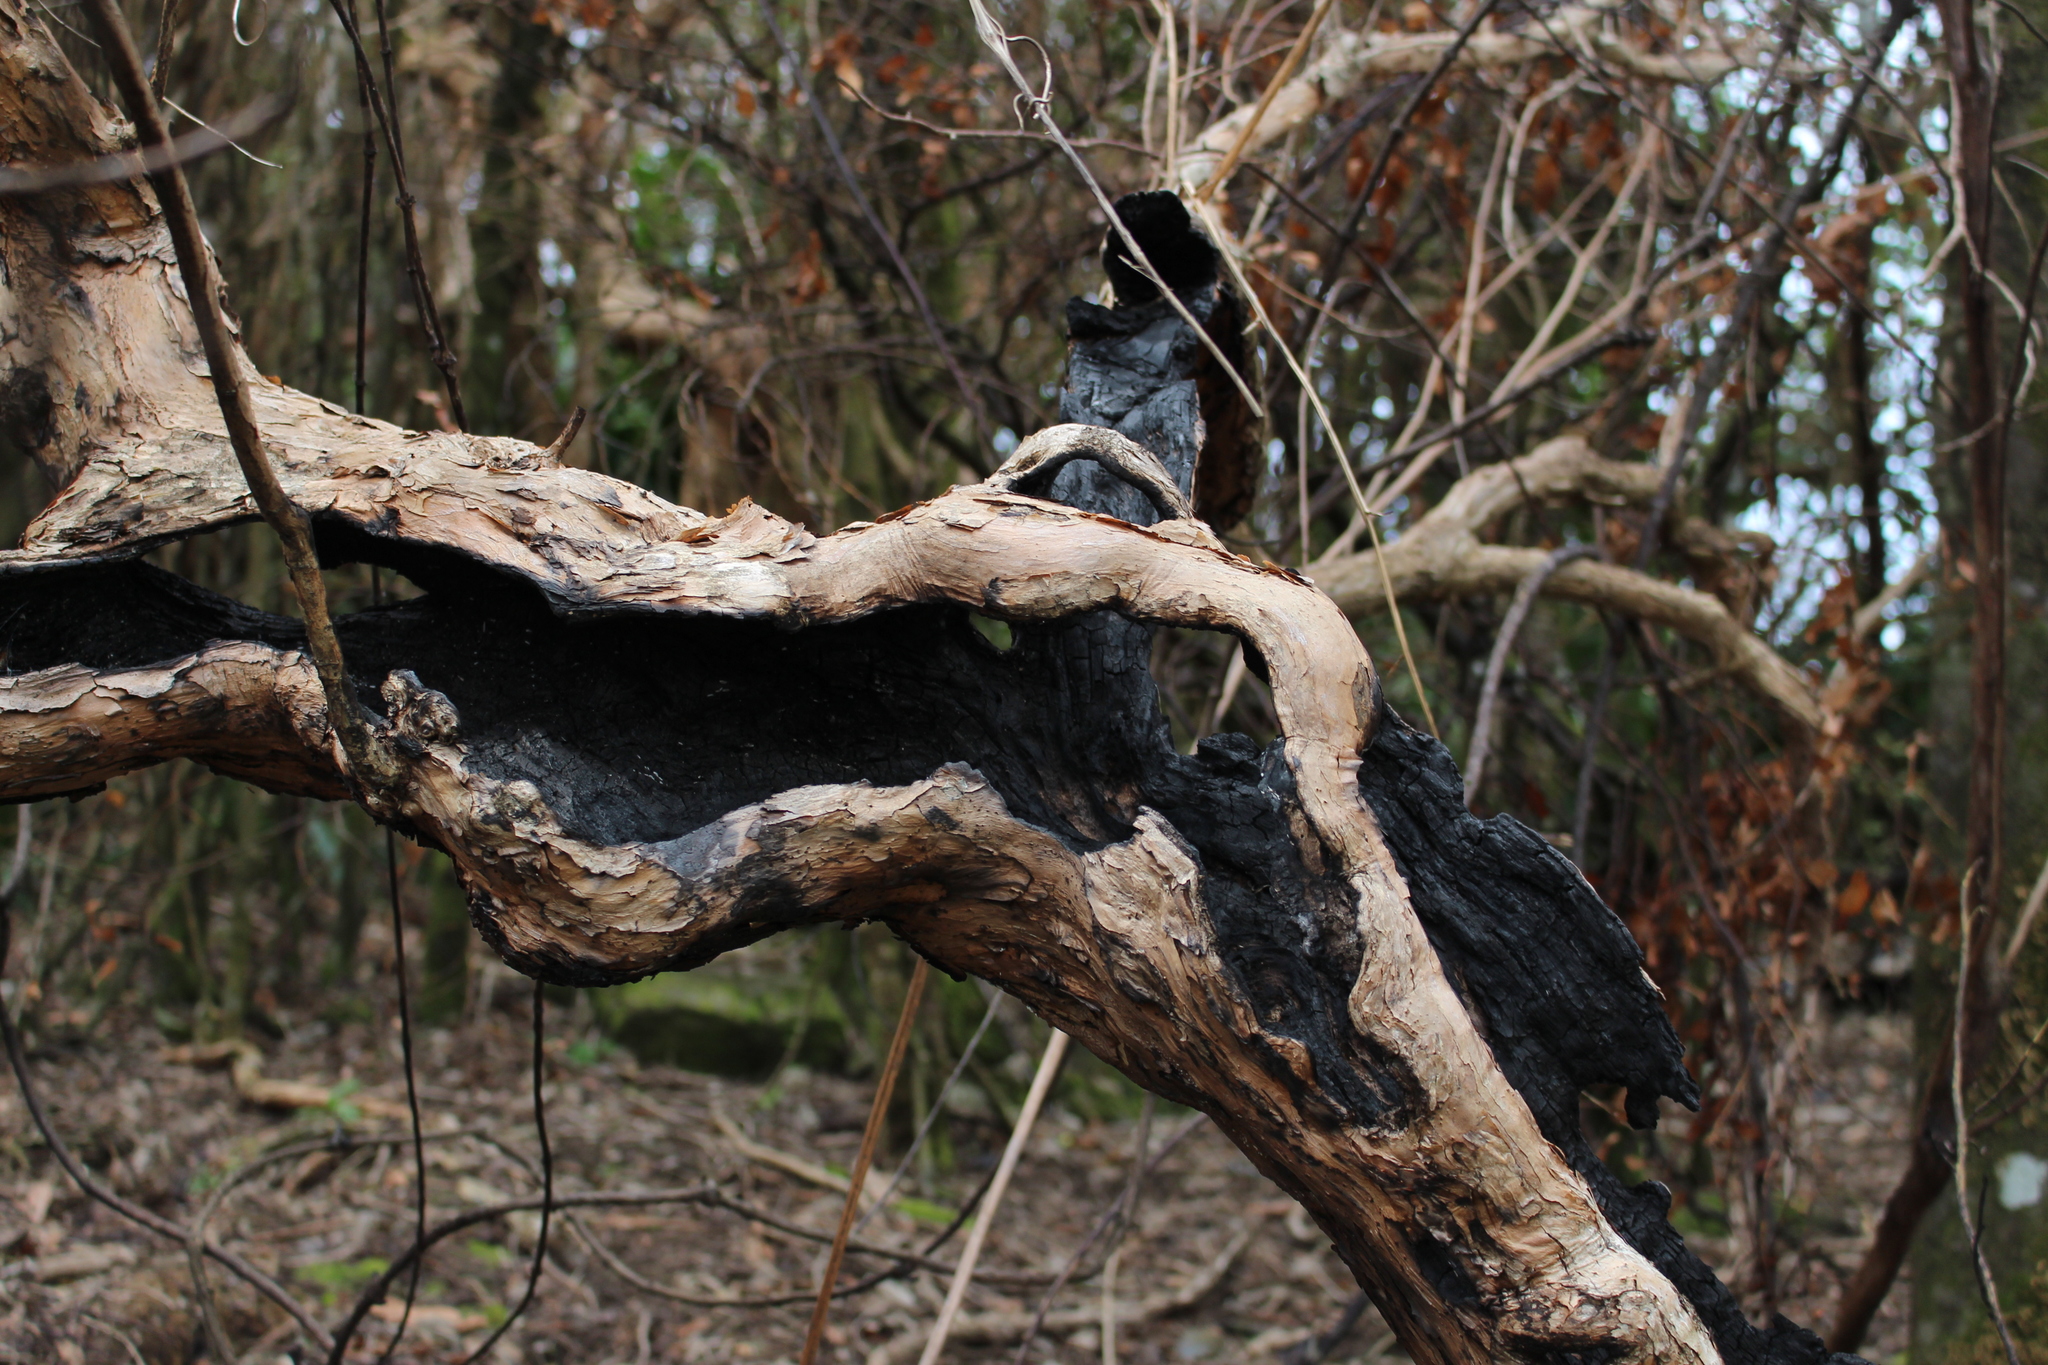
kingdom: Plantae
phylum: Tracheophyta
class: Magnoliopsida
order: Myrtales
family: Onagraceae
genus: Fuchsia
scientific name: Fuchsia excorticata
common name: Tree fuchsia
